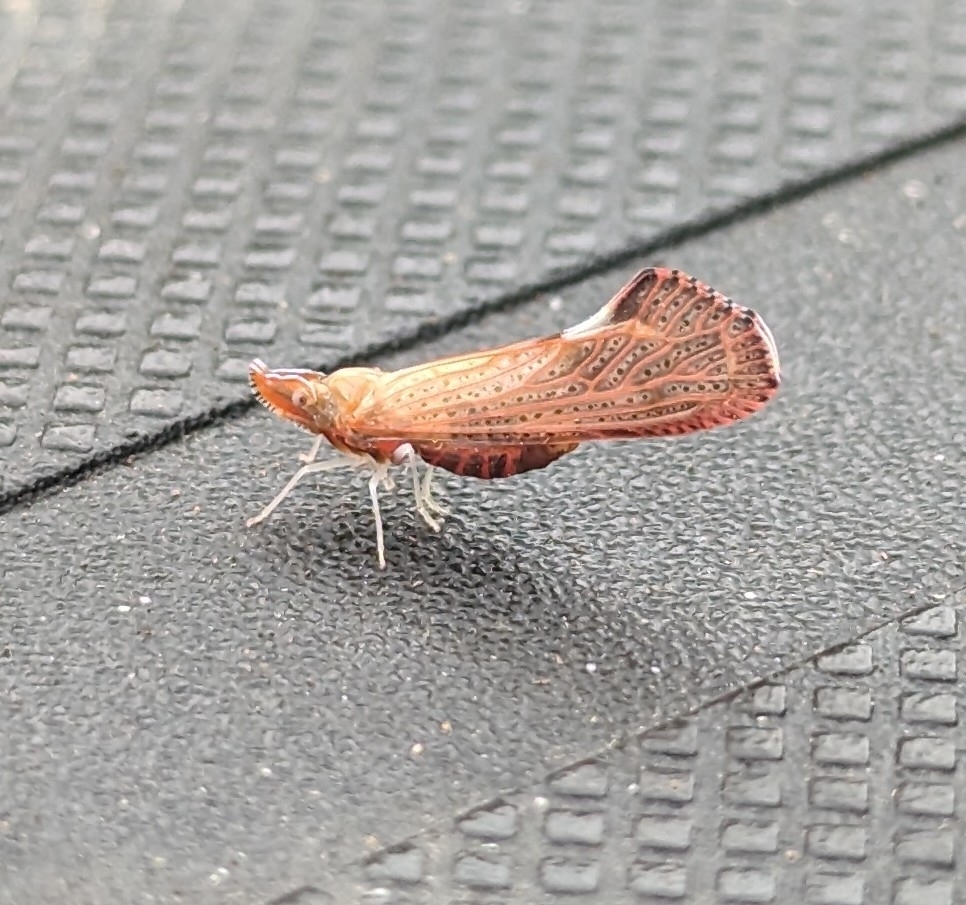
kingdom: Animalia
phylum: Arthropoda
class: Insecta
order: Hemiptera
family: Derbidae
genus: Apache
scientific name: Apache degeeri
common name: Red-fanned planthopper
